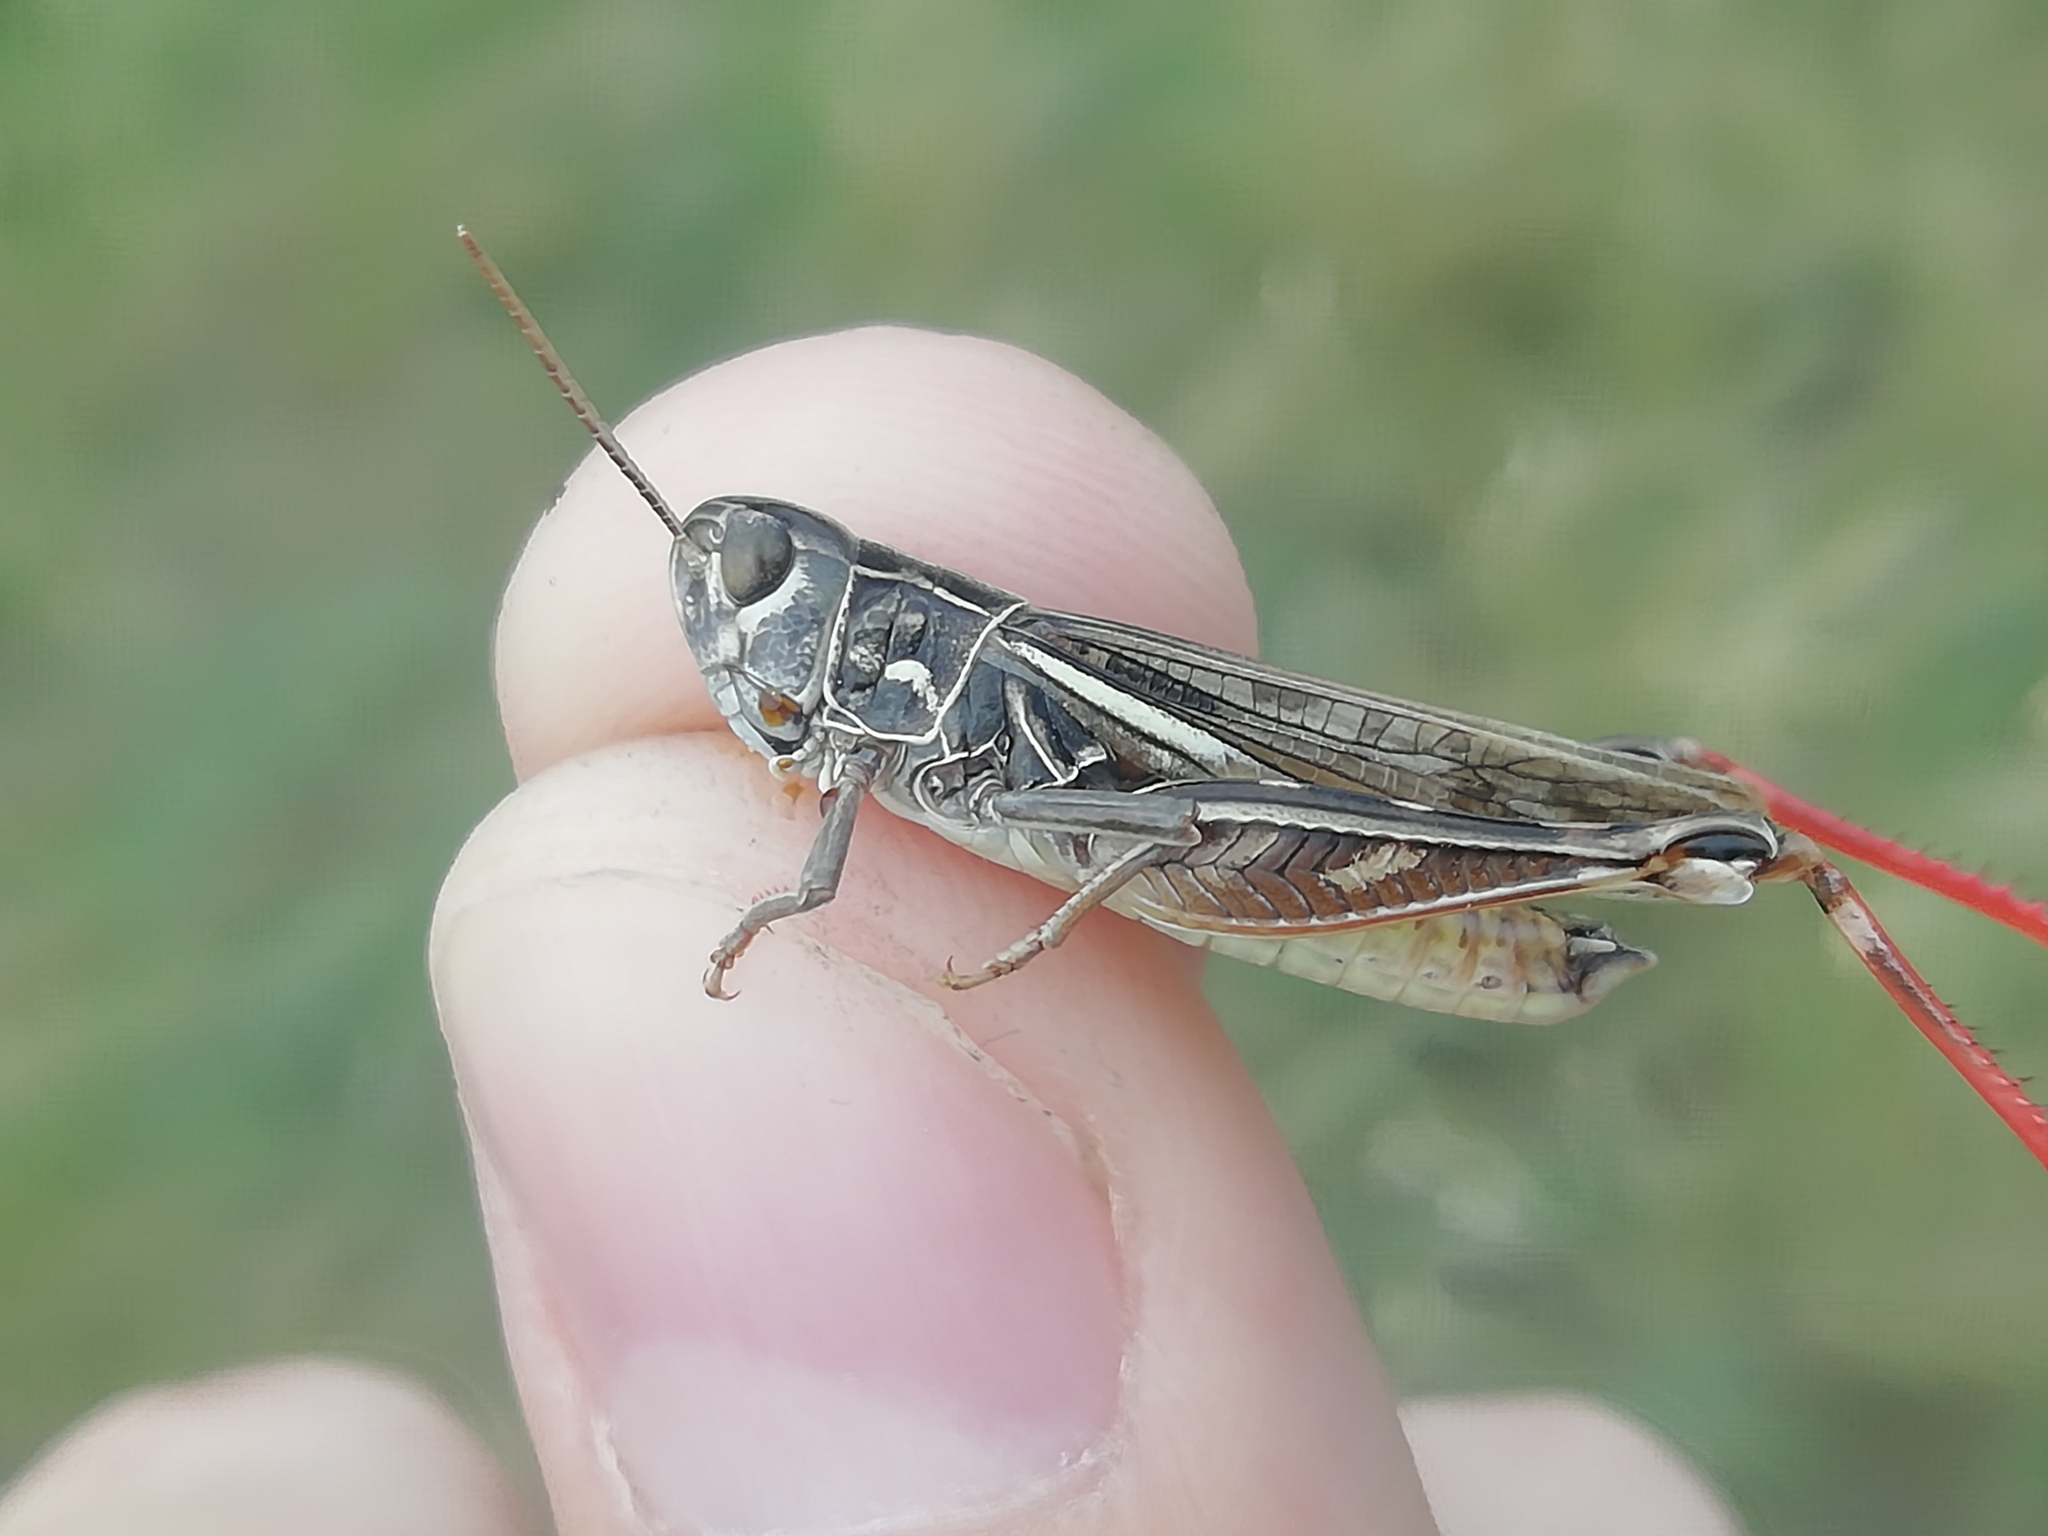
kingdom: Animalia
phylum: Arthropoda
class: Insecta
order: Orthoptera
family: Acrididae
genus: Arcyptera
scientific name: Arcyptera microptera
